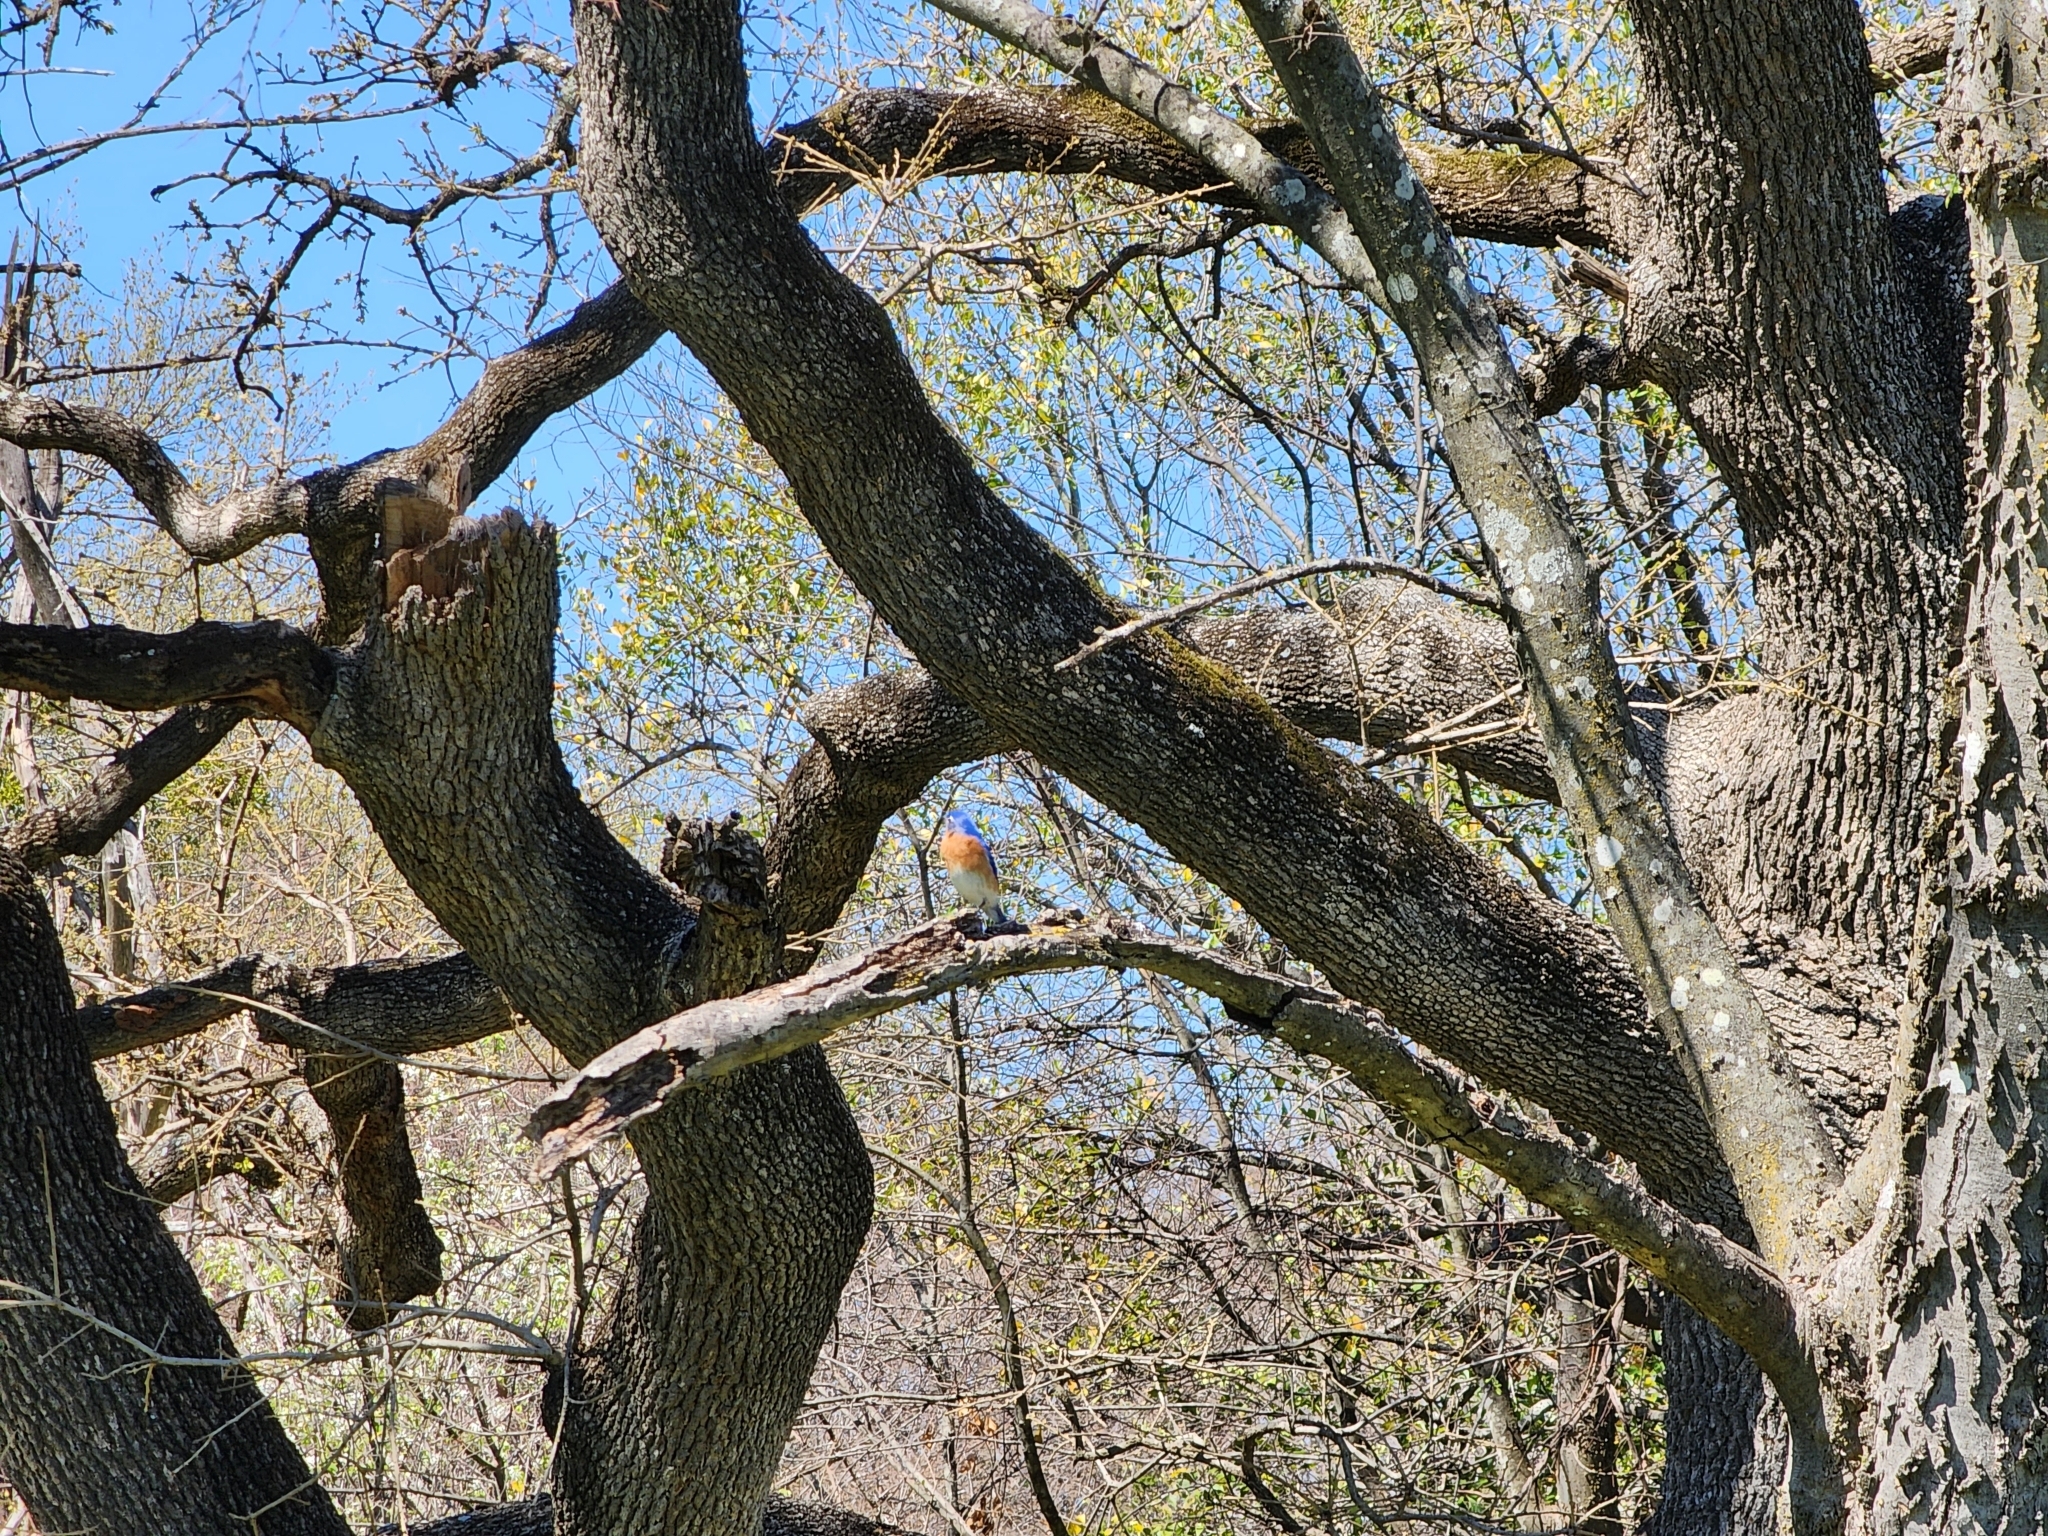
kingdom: Animalia
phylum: Chordata
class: Aves
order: Passeriformes
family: Turdidae
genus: Sialia
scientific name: Sialia sialis
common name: Eastern bluebird
